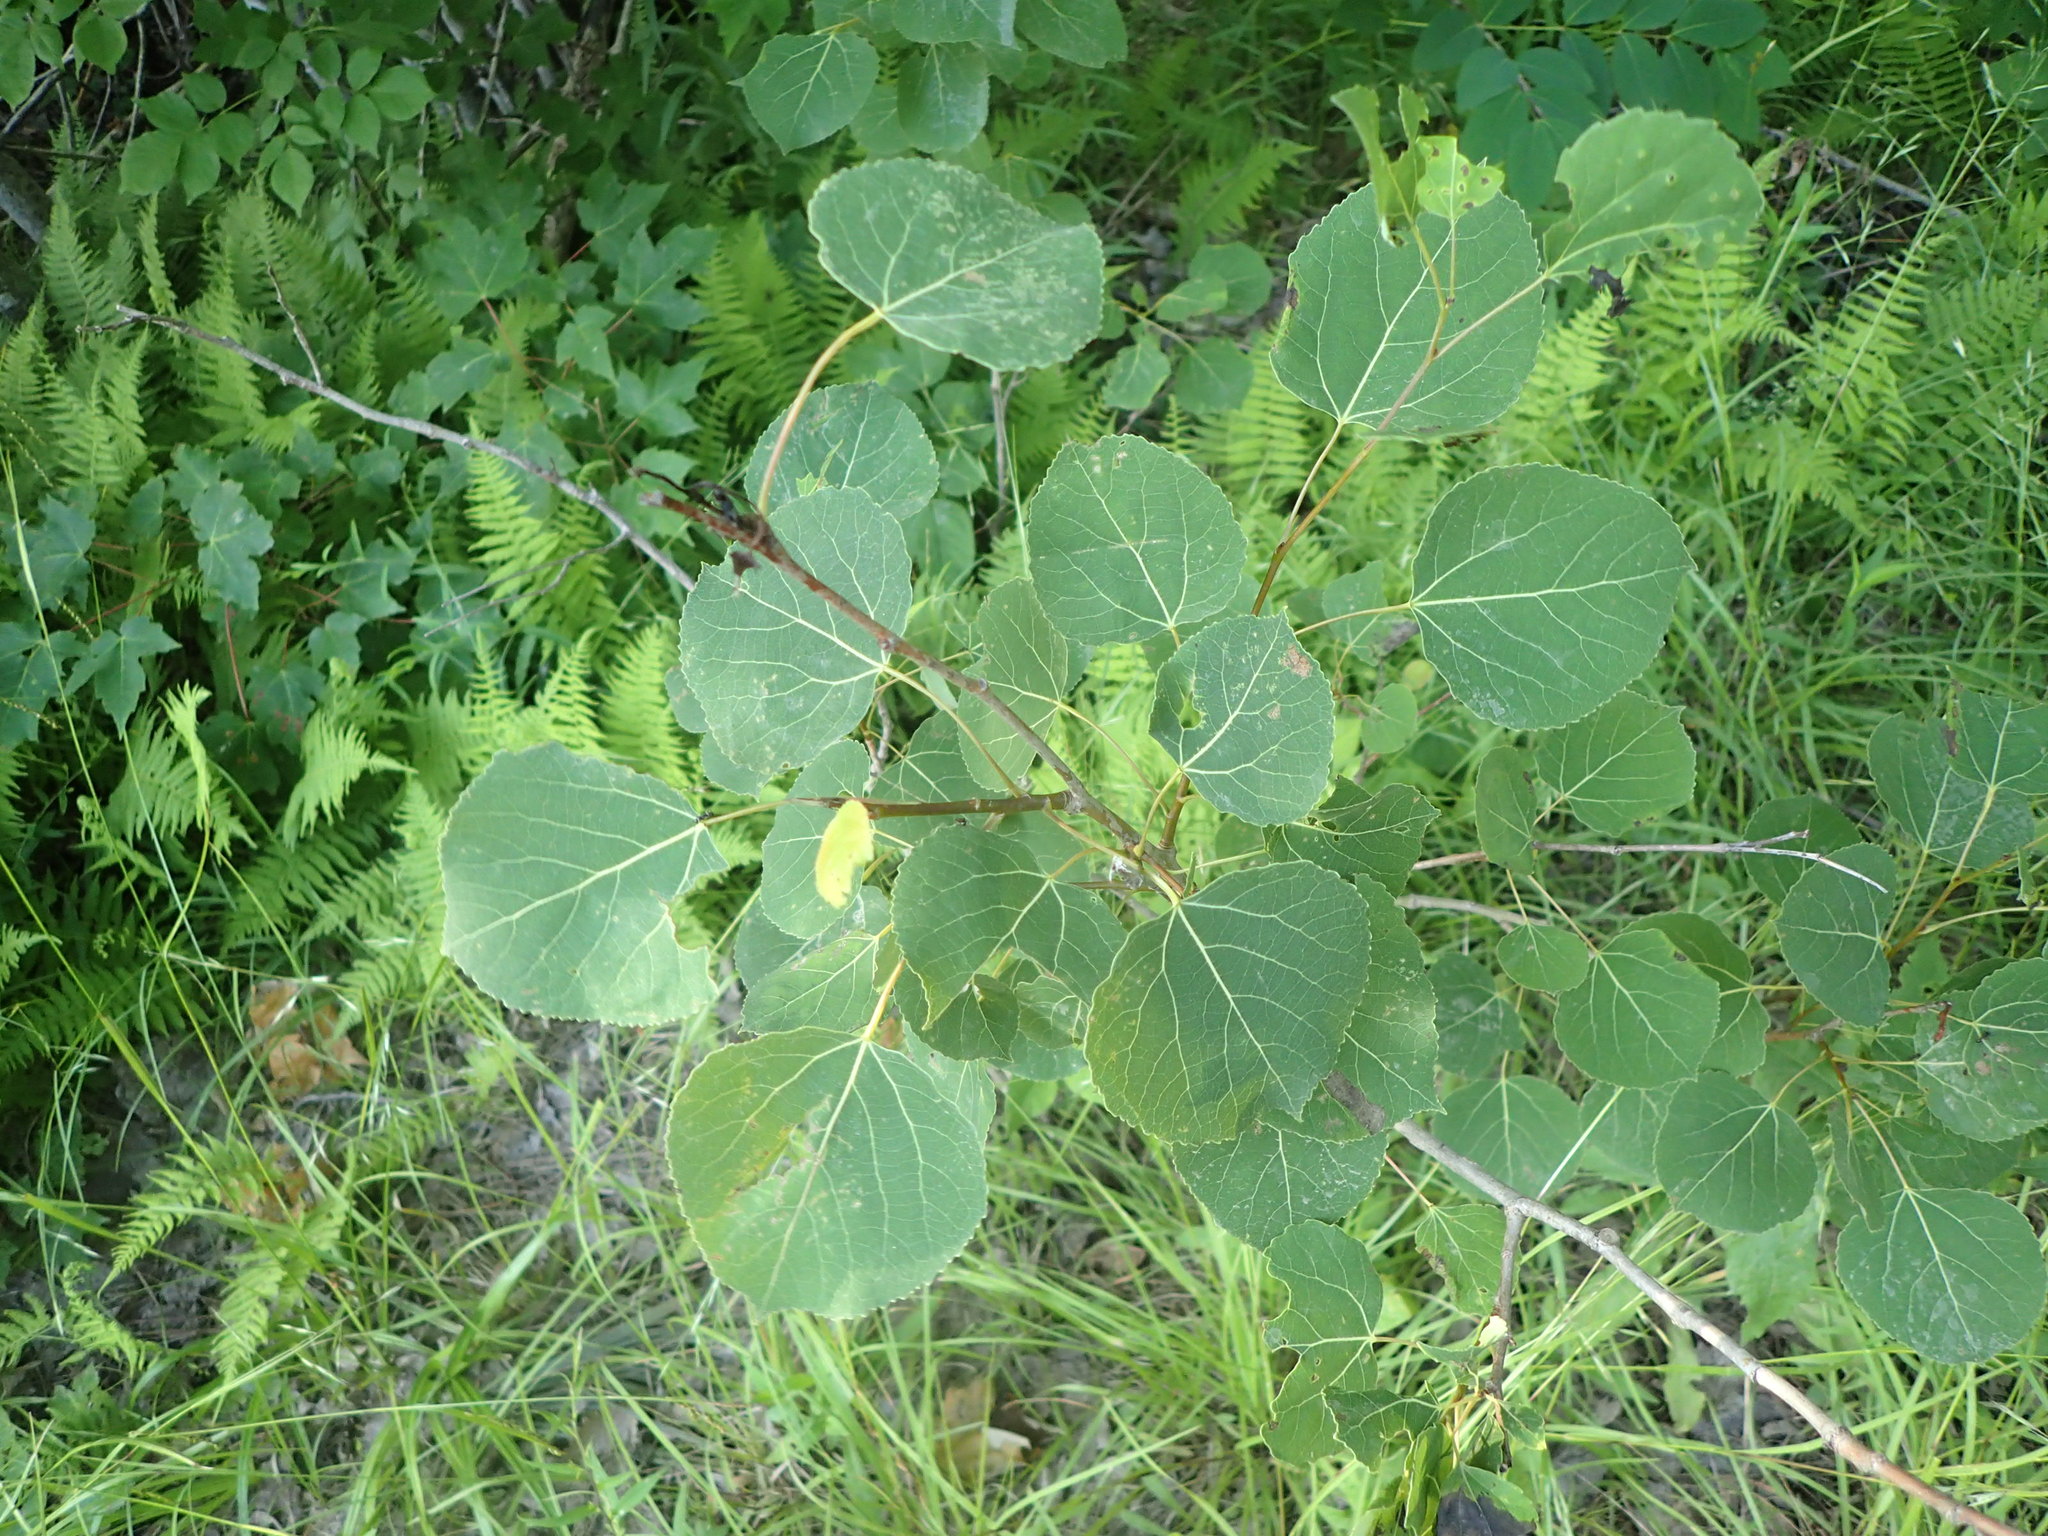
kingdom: Plantae
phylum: Tracheophyta
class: Magnoliopsida
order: Malpighiales
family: Salicaceae
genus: Populus
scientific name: Populus tremuloides
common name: Quaking aspen
